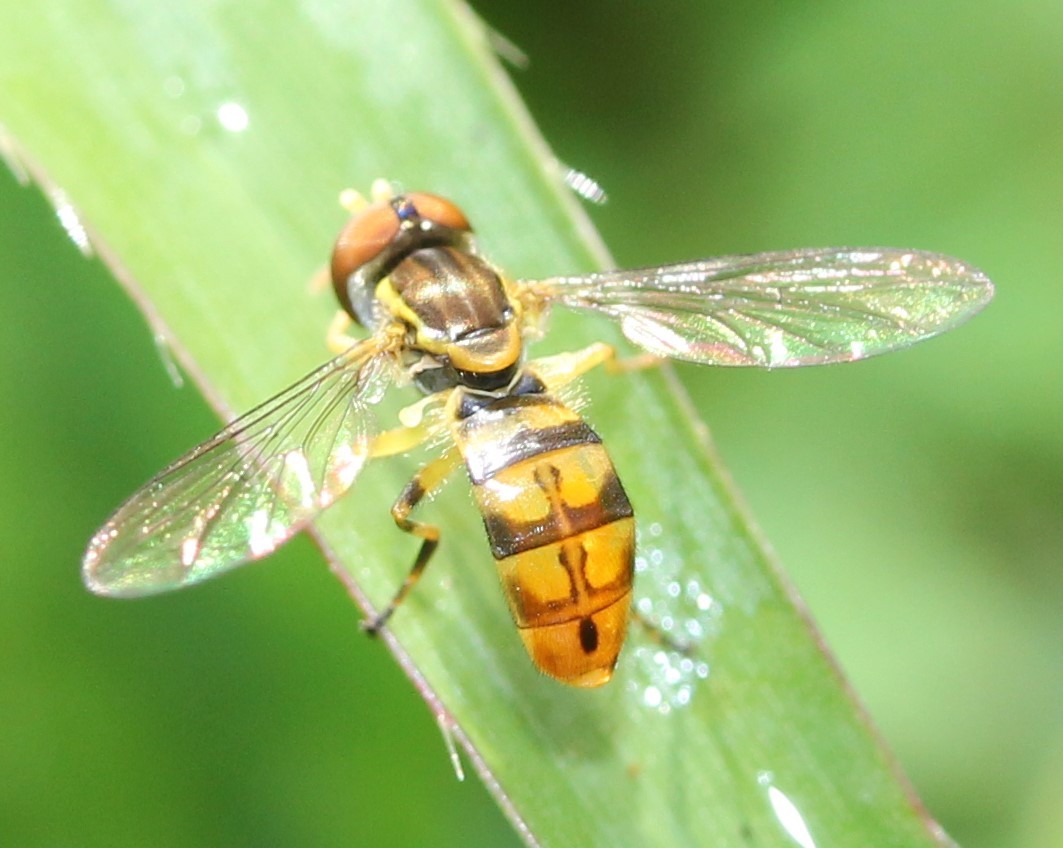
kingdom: Animalia
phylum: Arthropoda
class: Insecta
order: Diptera
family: Syrphidae
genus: Toxomerus
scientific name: Toxomerus floralis
